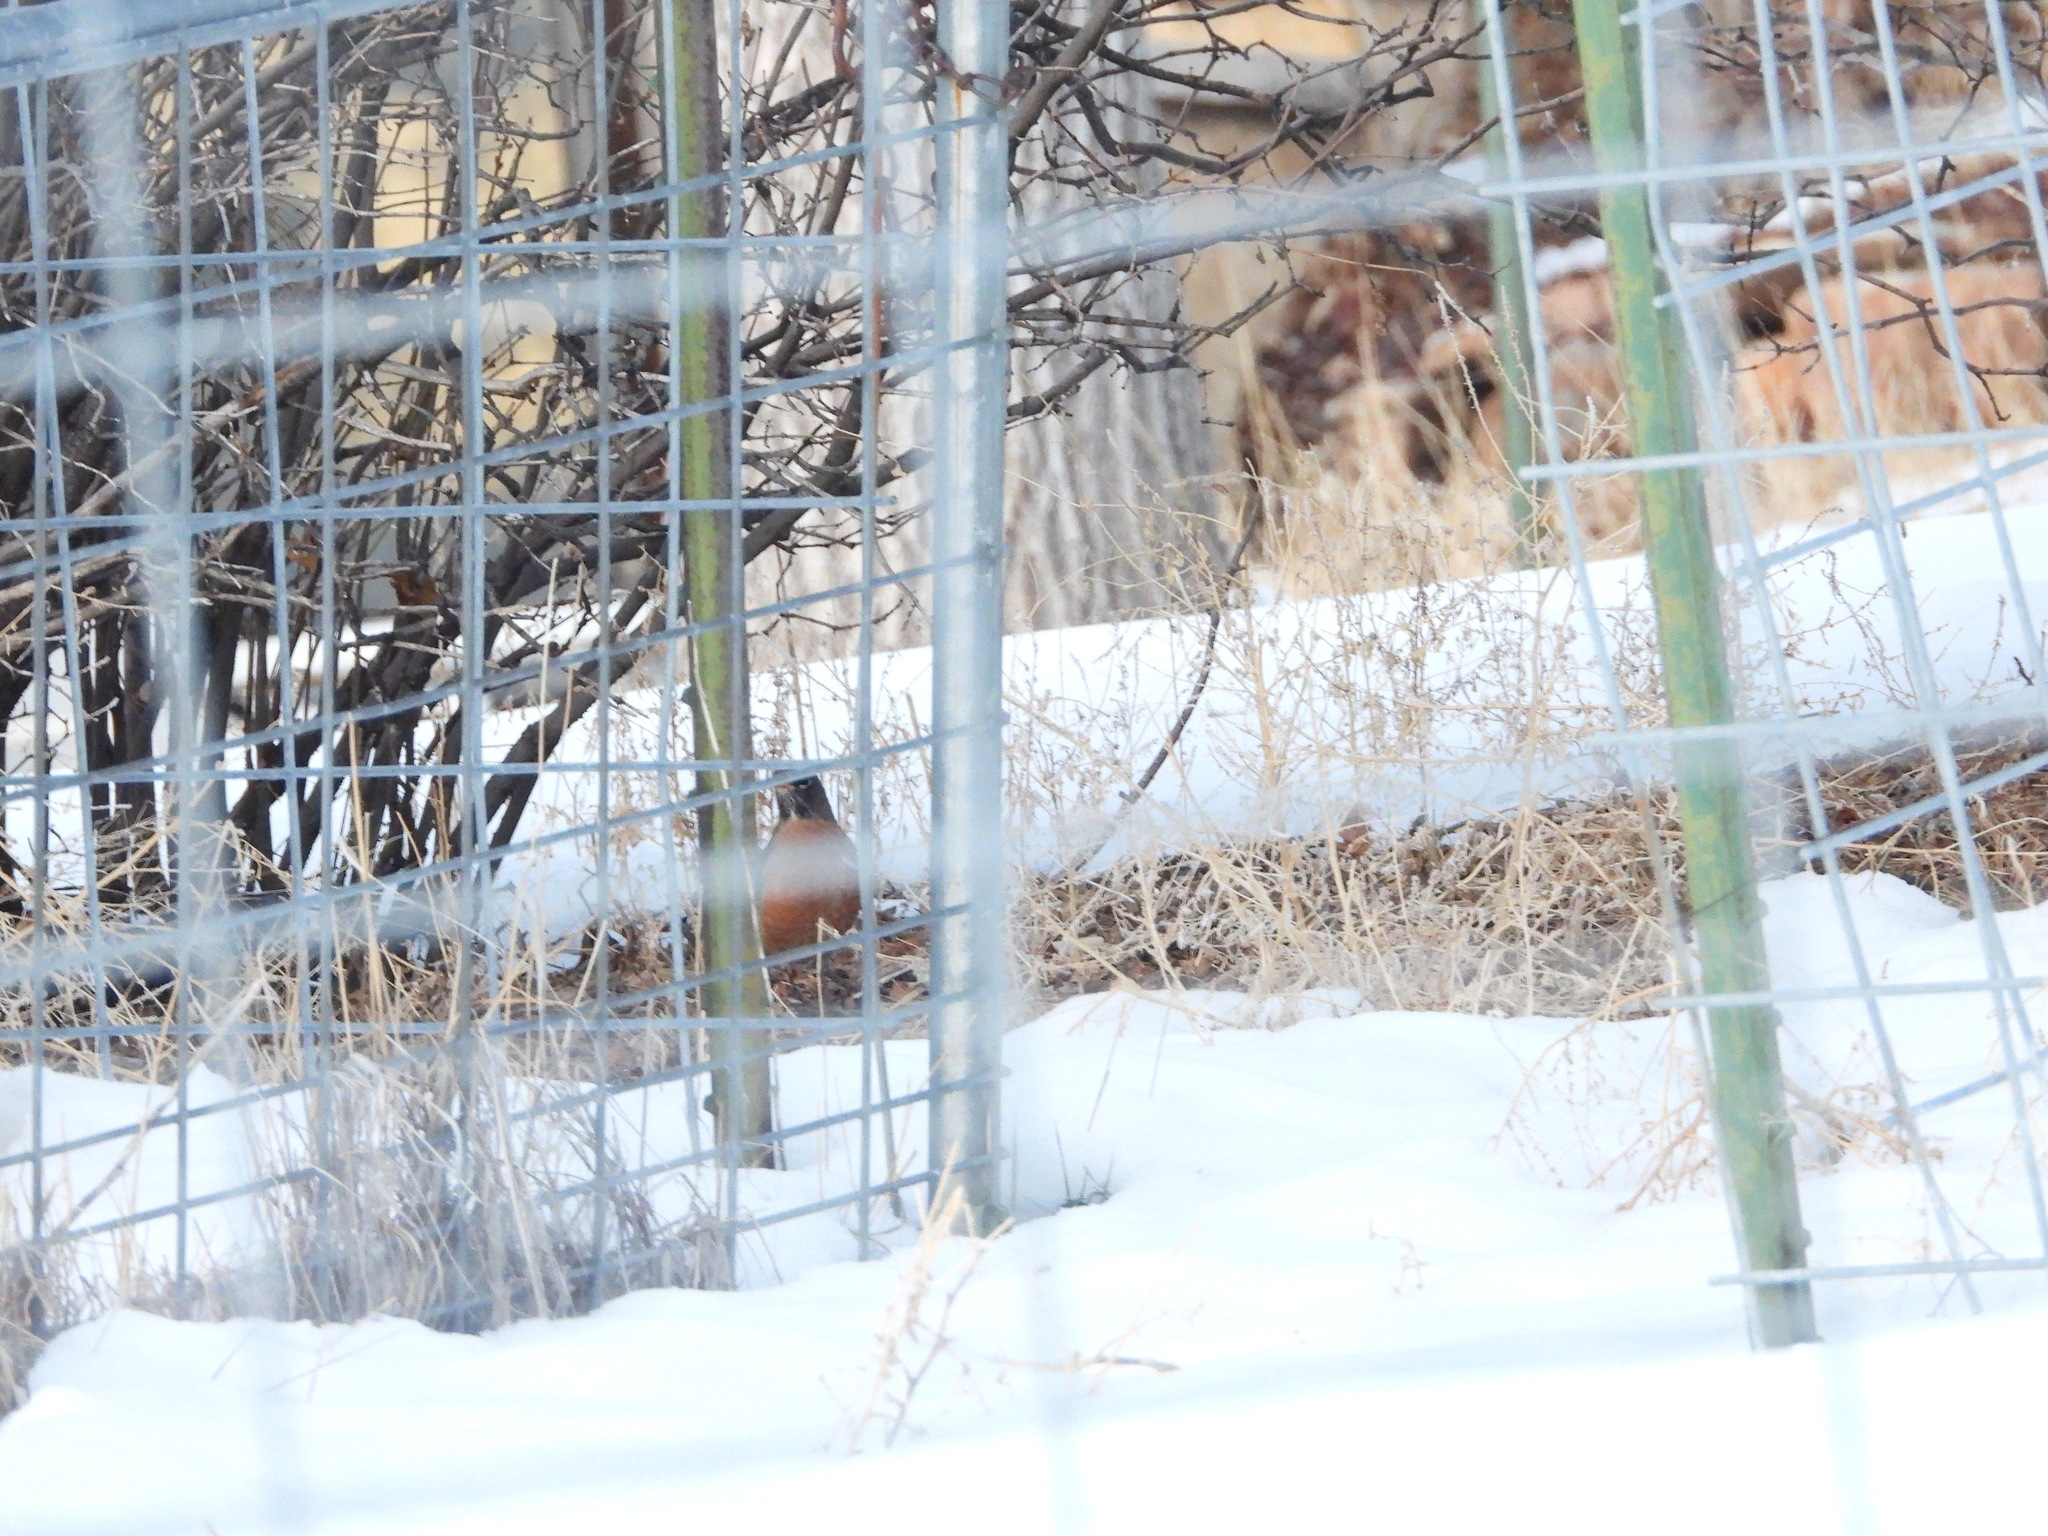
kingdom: Animalia
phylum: Chordata
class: Aves
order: Passeriformes
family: Turdidae
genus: Turdus
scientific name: Turdus migratorius
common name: American robin
